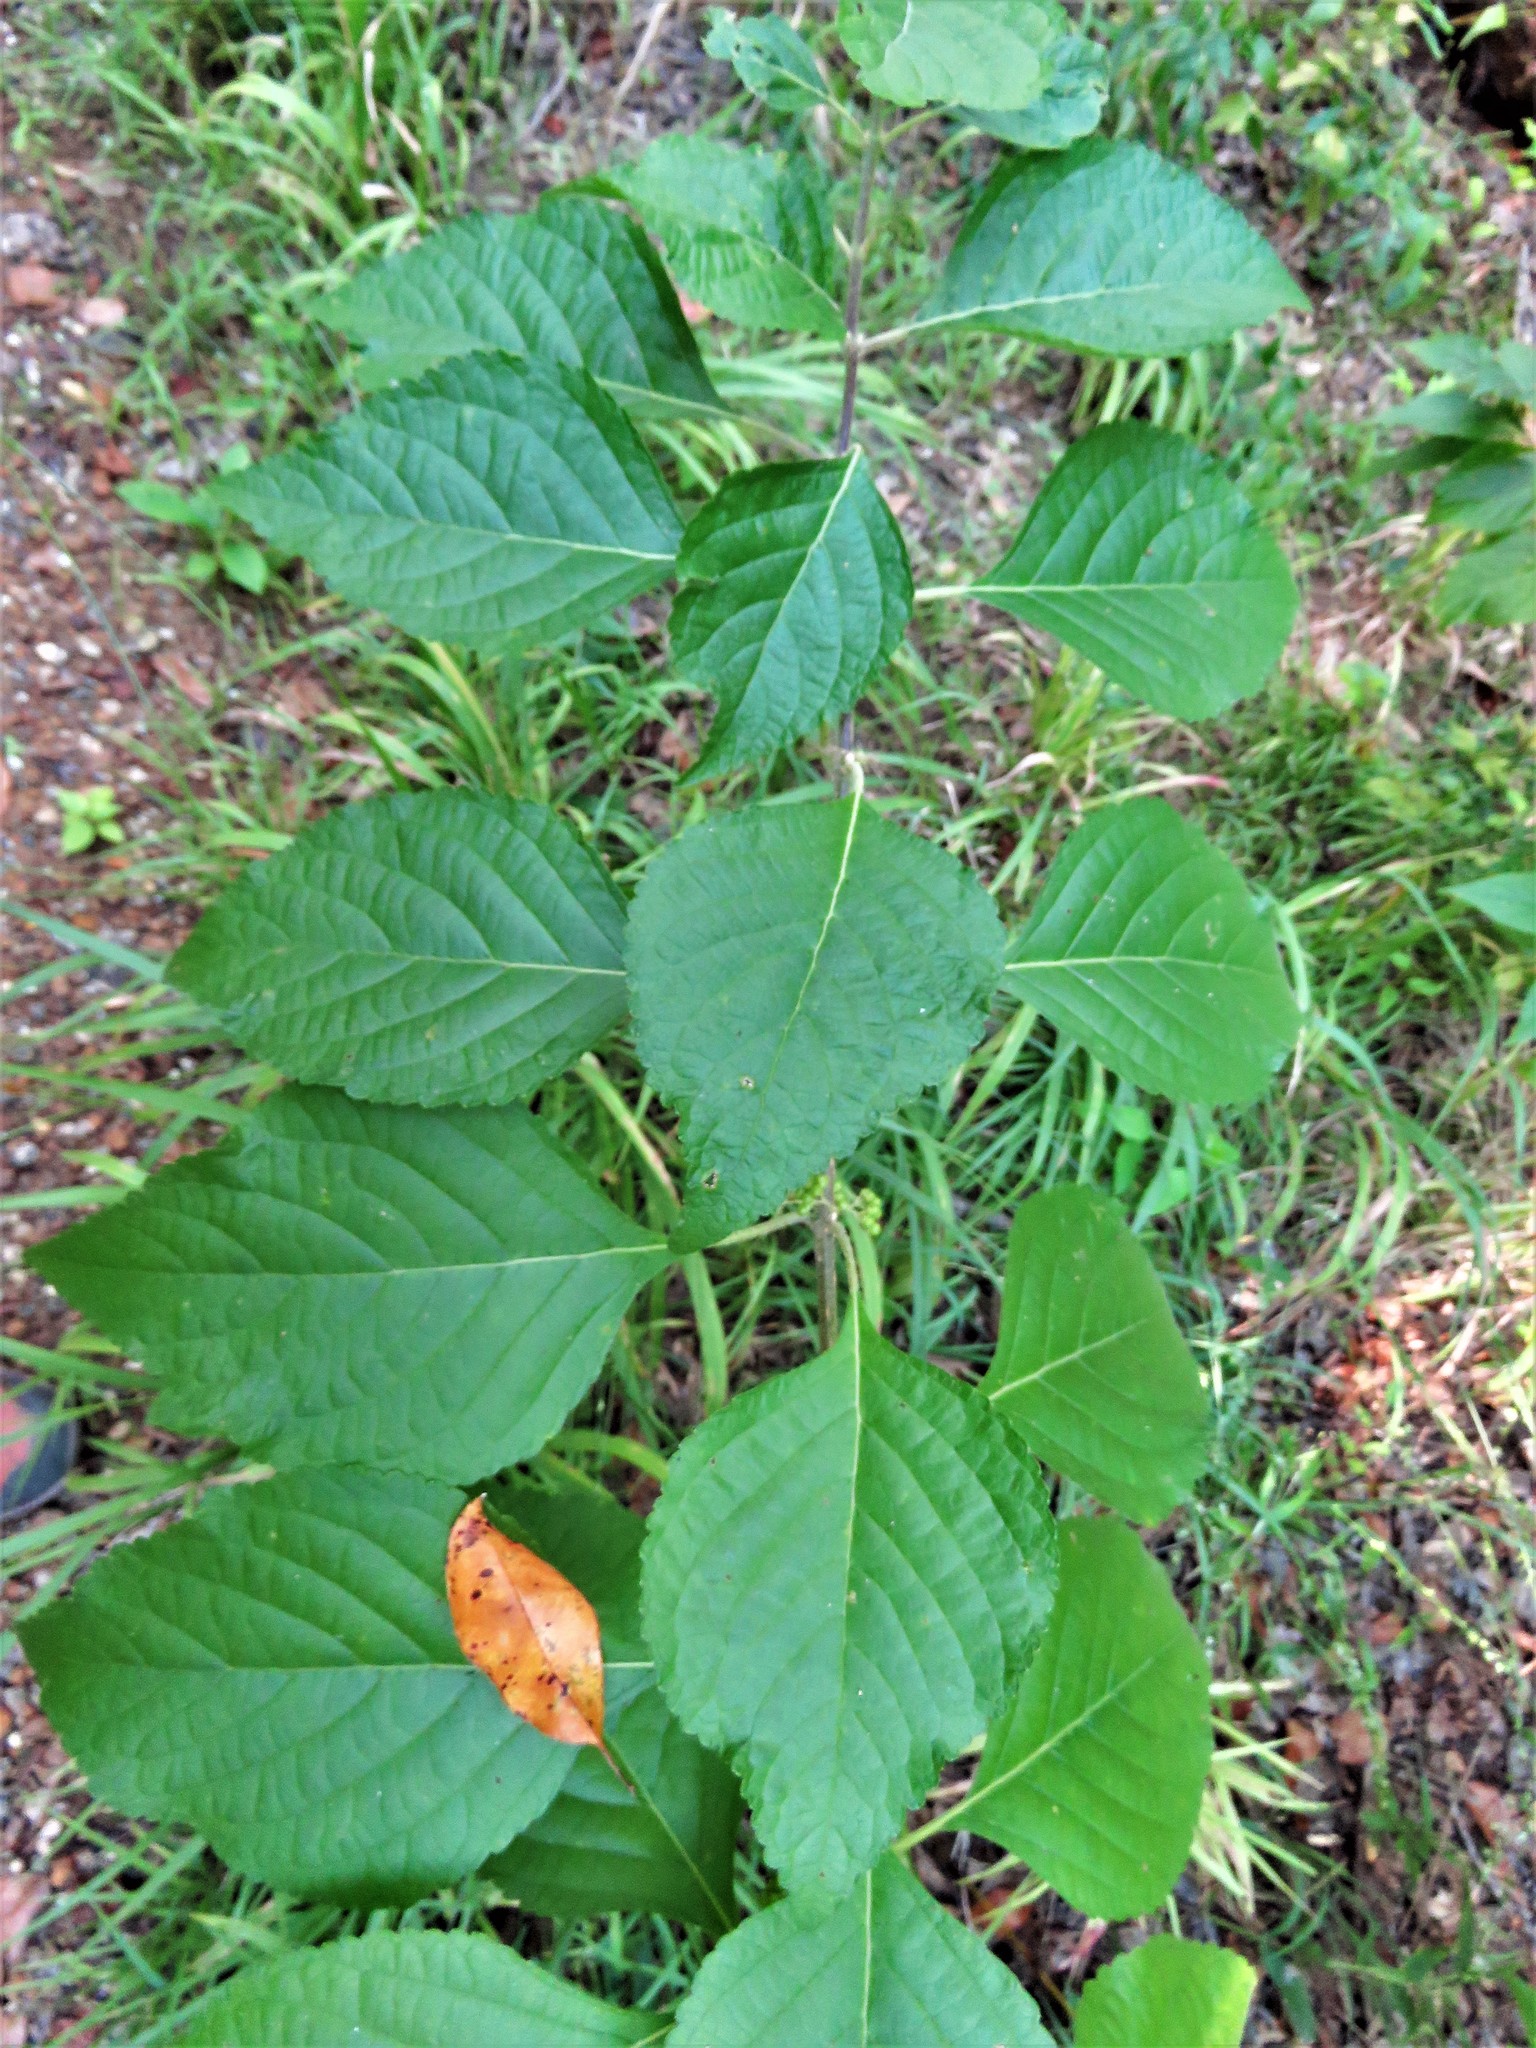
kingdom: Plantae
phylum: Tracheophyta
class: Magnoliopsida
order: Lamiales
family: Lamiaceae
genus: Callicarpa
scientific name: Callicarpa americana
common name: American beautyberry
